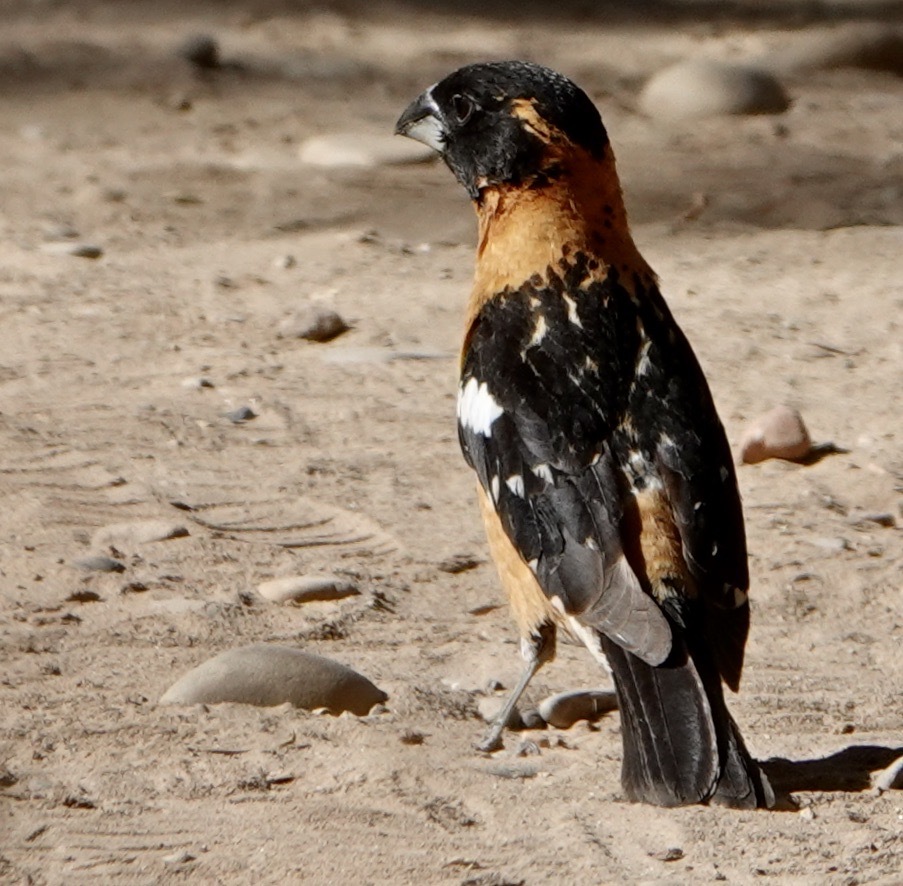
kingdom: Animalia
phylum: Chordata
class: Aves
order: Passeriformes
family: Cardinalidae
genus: Pheucticus
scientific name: Pheucticus melanocephalus
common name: Black-headed grosbeak
